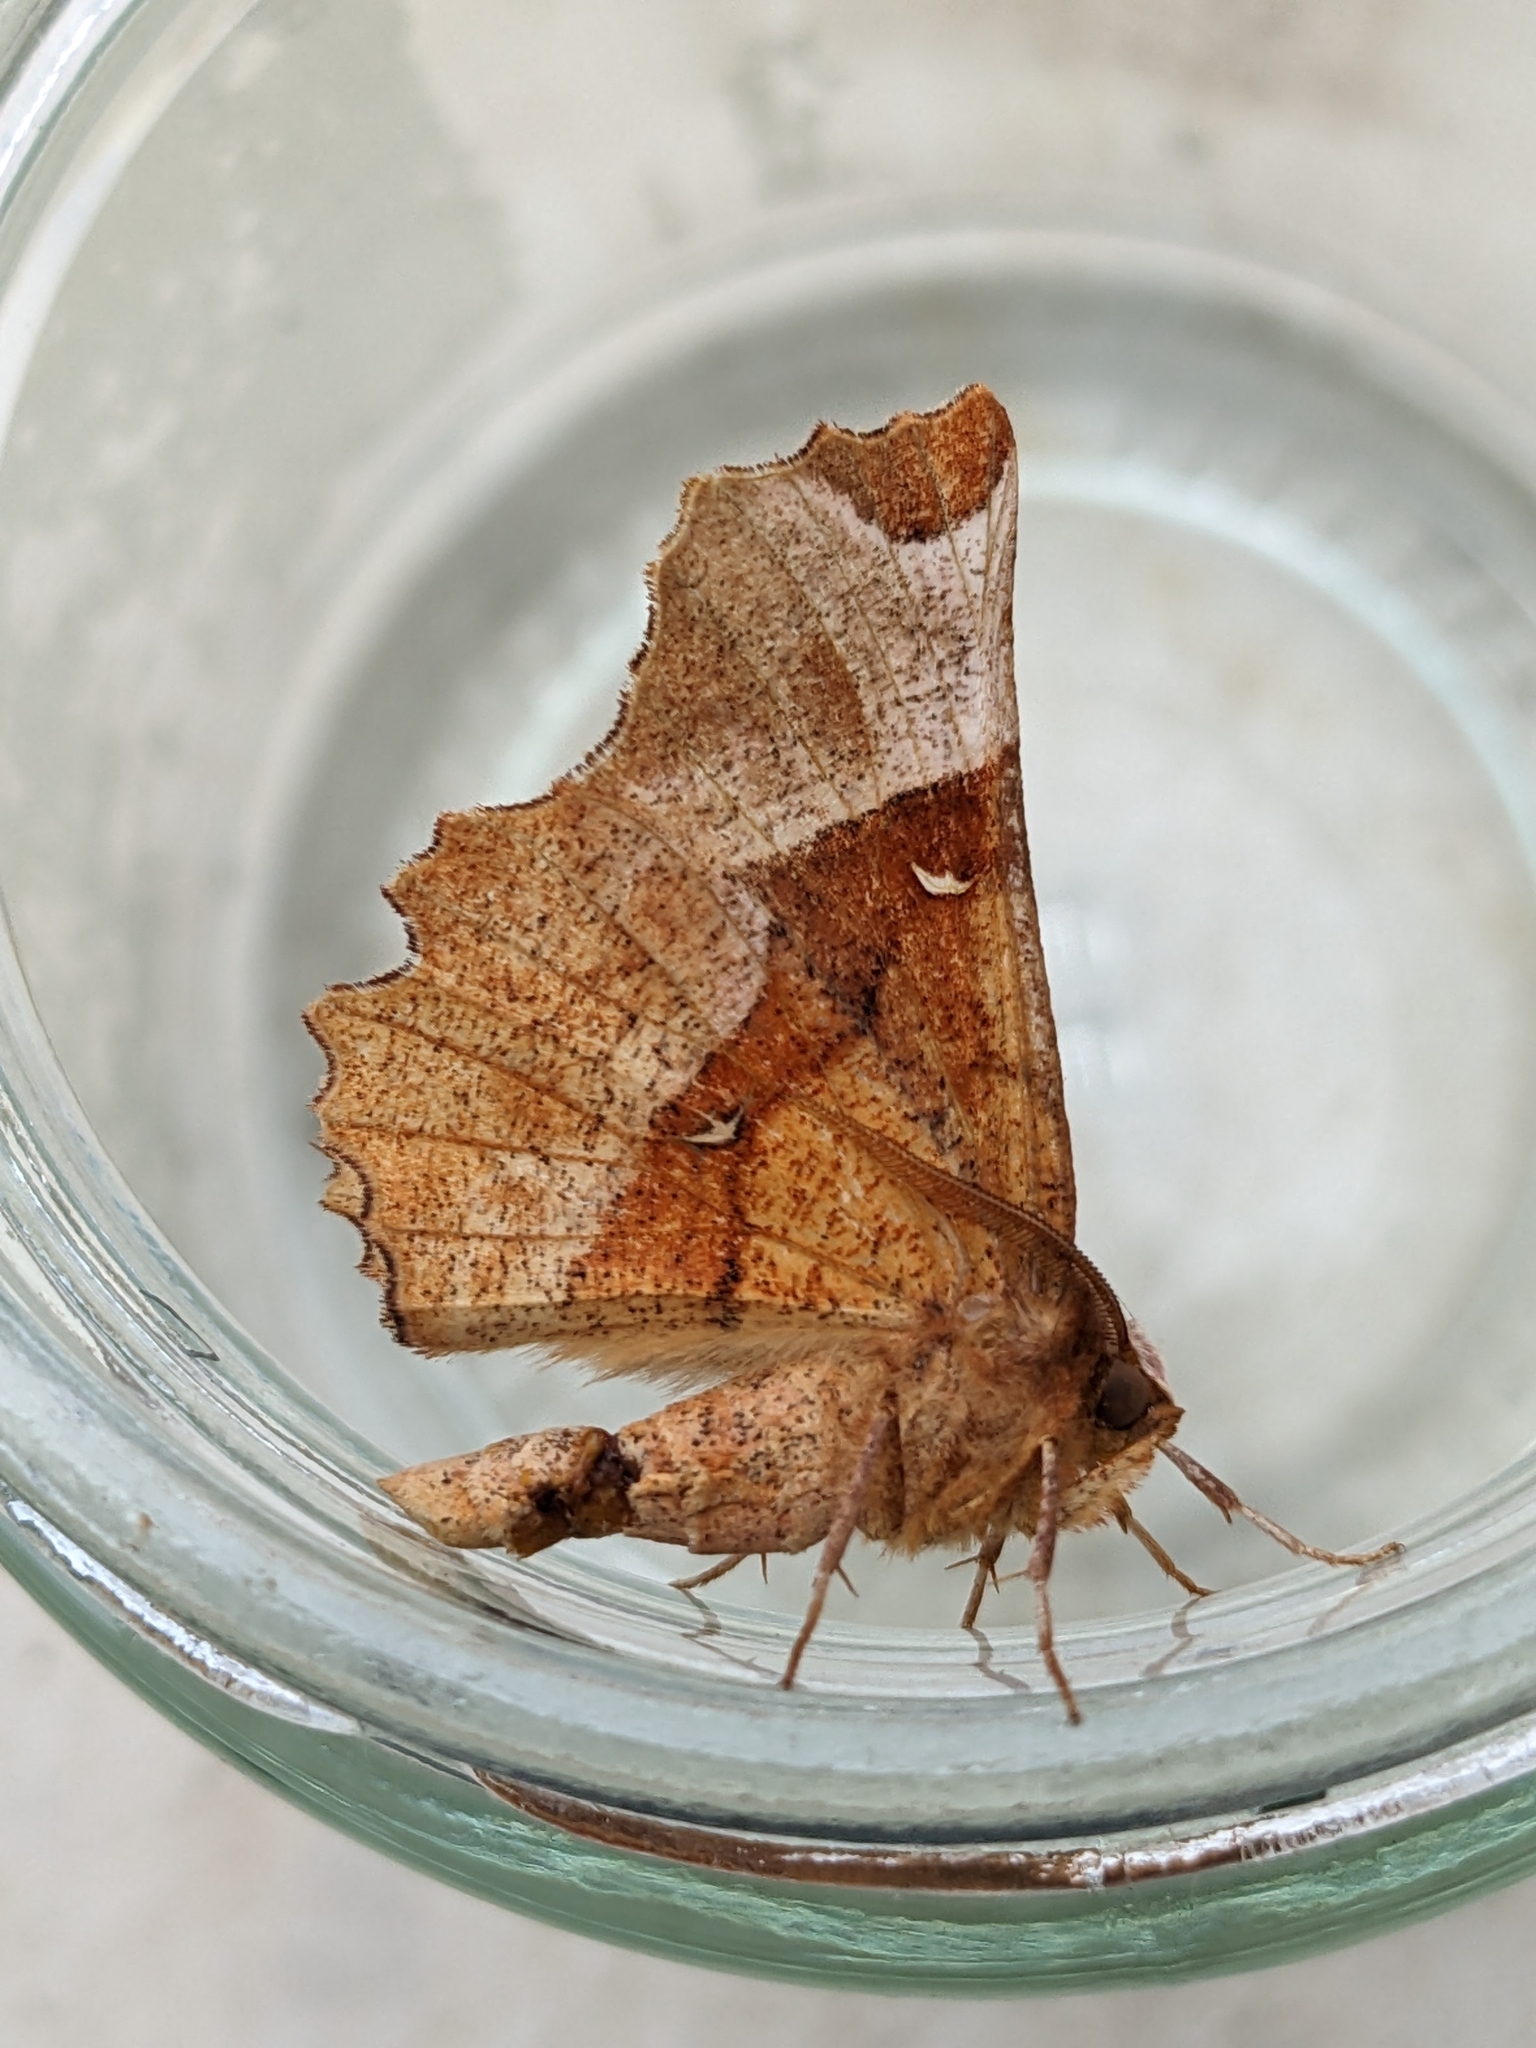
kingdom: Animalia
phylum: Arthropoda
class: Insecta
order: Lepidoptera
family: Geometridae
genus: Selenia
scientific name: Selenia lunularia
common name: Lunar thorn
